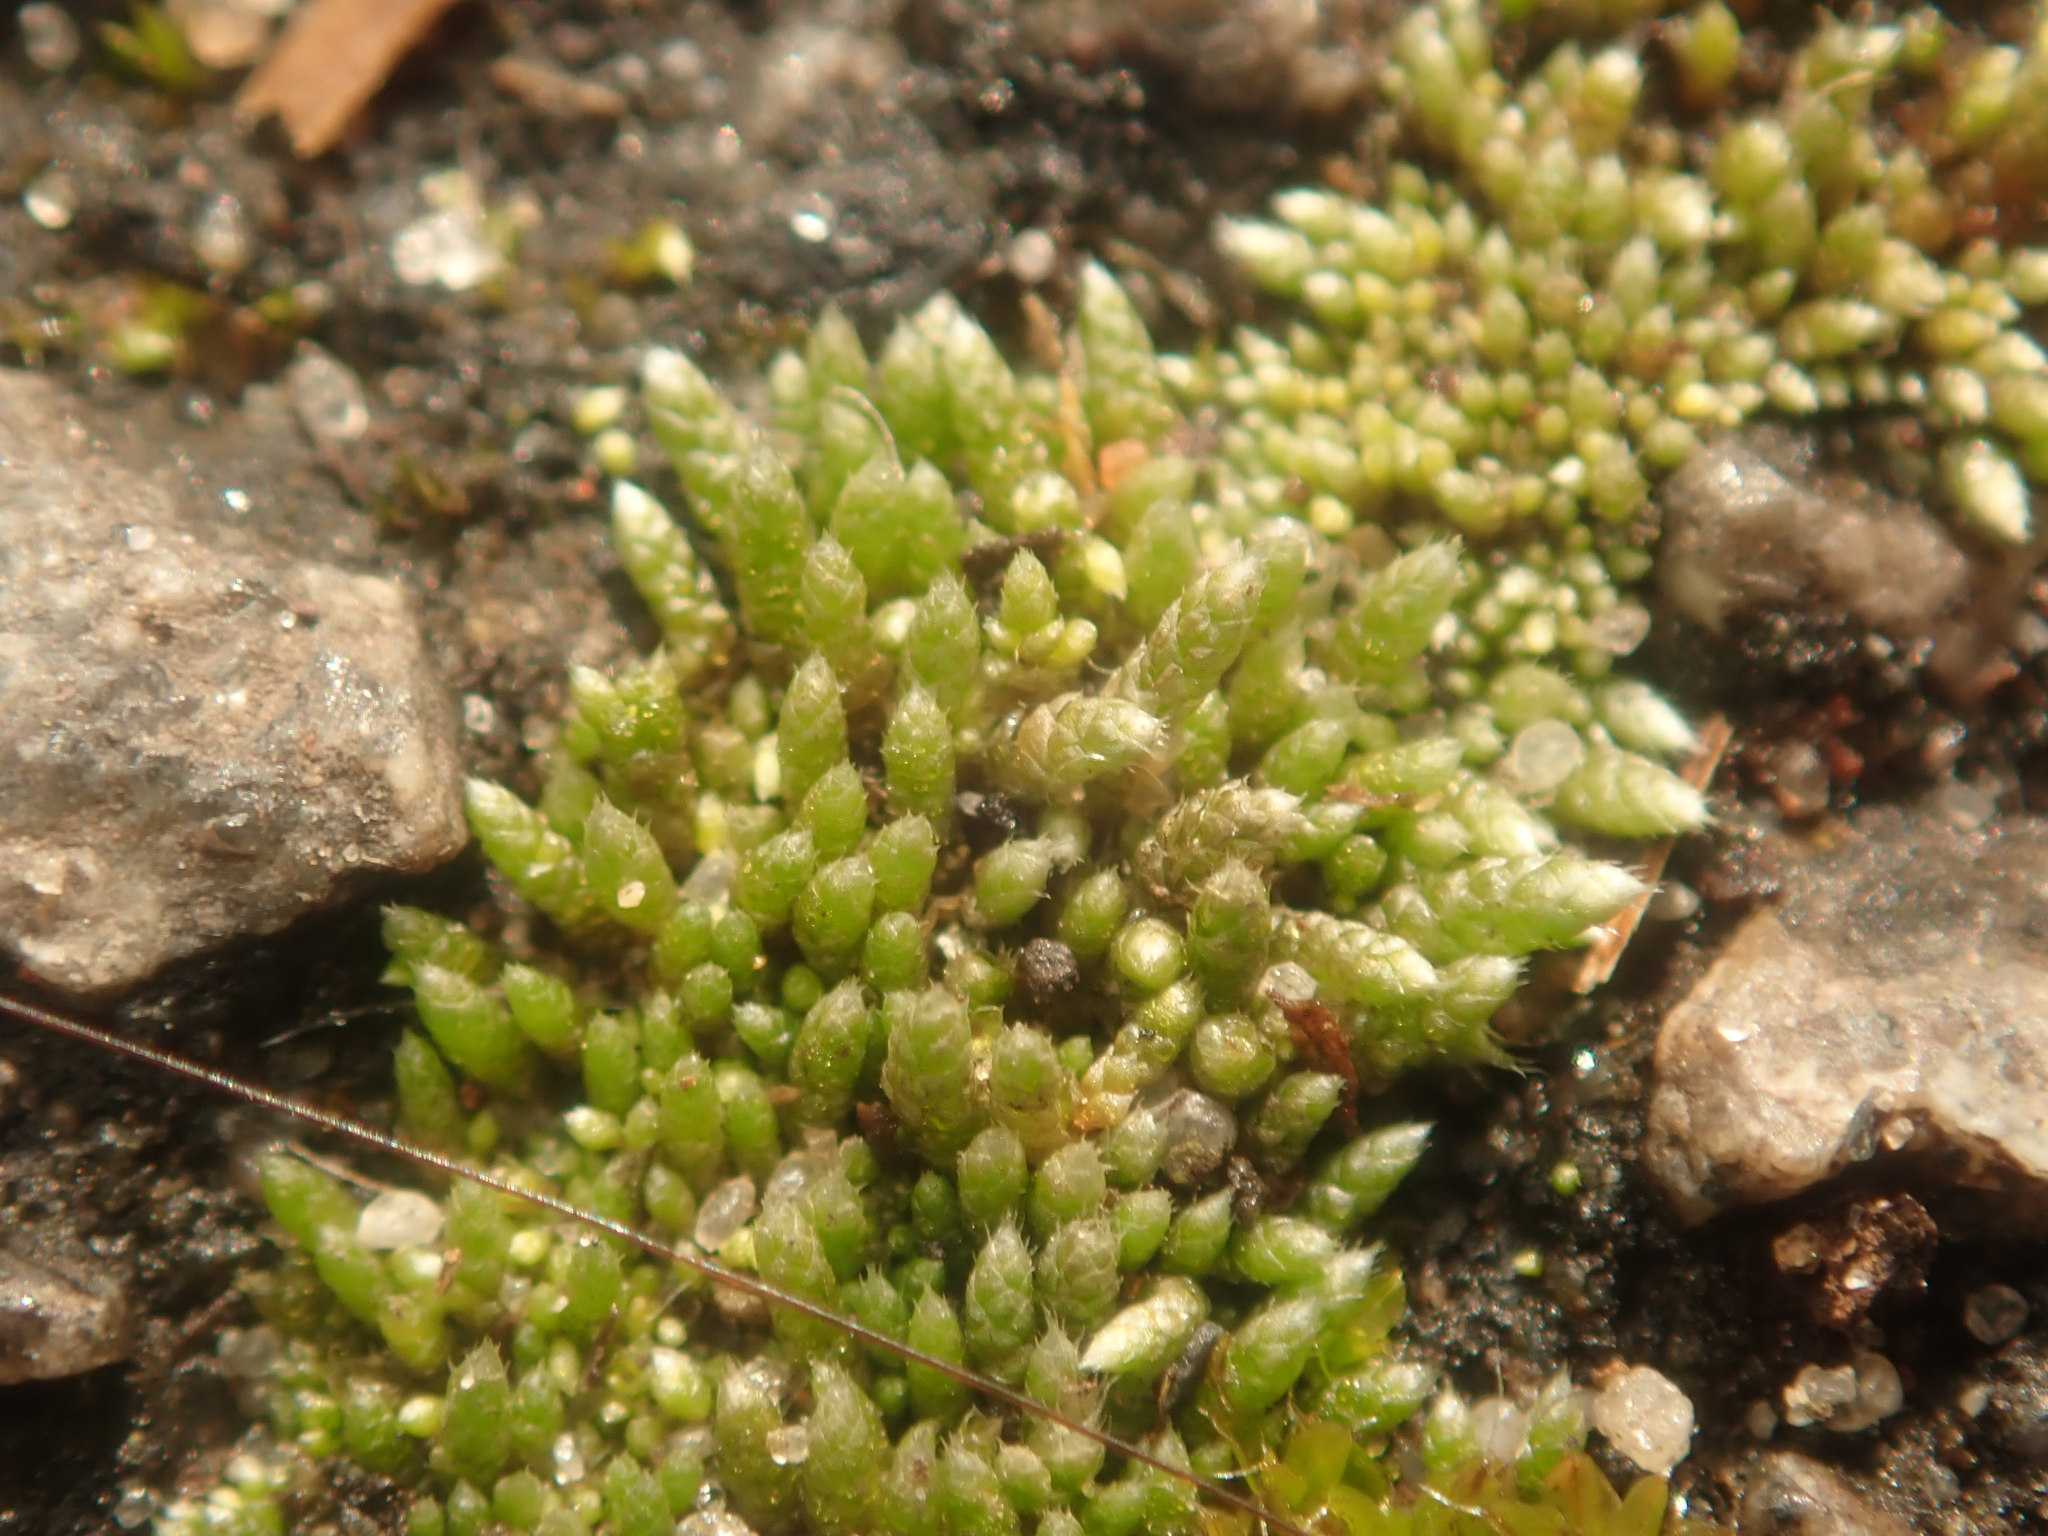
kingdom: Plantae
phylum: Bryophyta
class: Bryopsida
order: Bryales
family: Bryaceae
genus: Bryum
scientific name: Bryum argenteum
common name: Silver-moss
